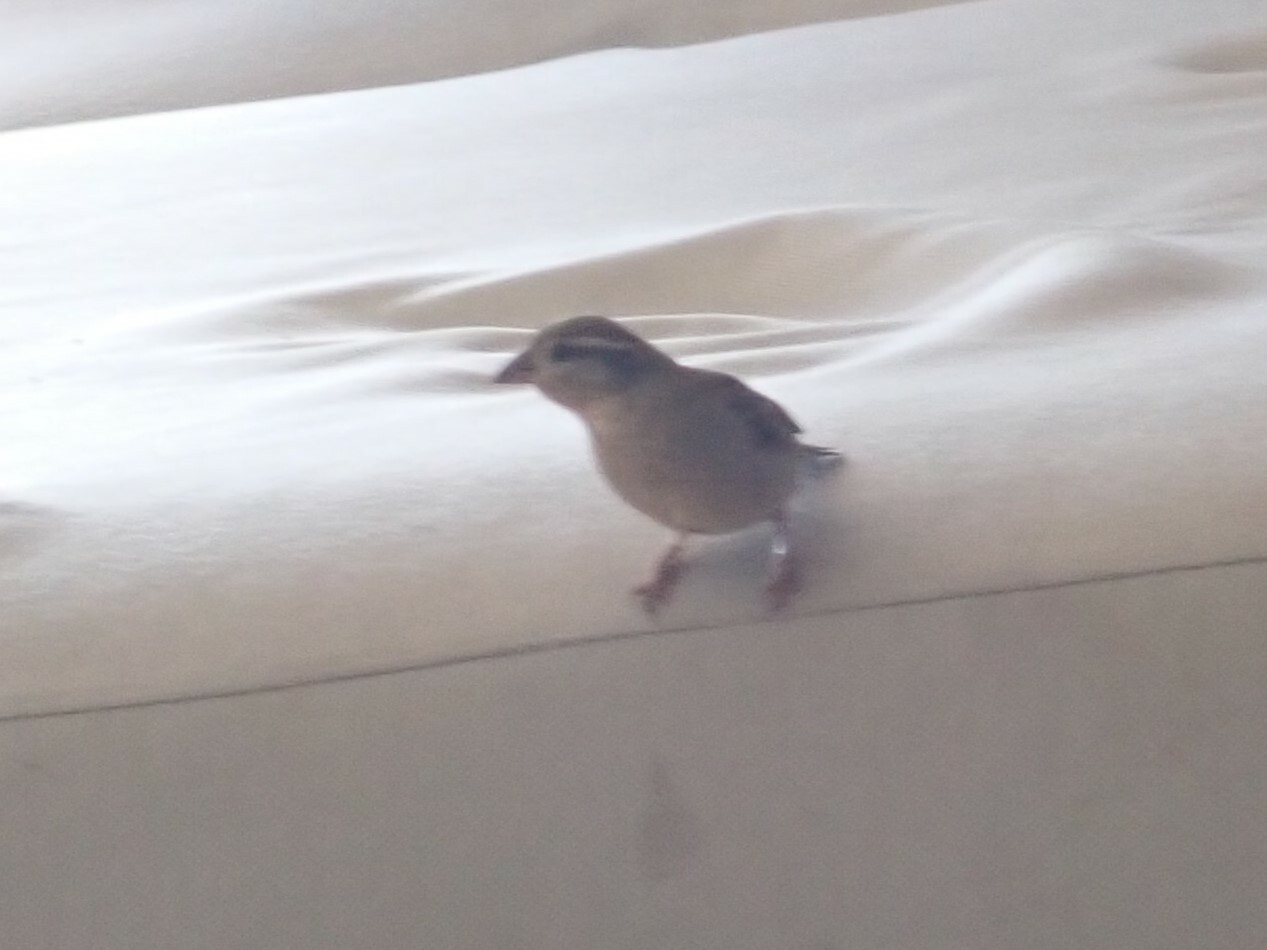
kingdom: Animalia
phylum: Chordata
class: Aves
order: Passeriformes
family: Passeridae
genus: Passer
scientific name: Passer domesticus
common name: House sparrow
